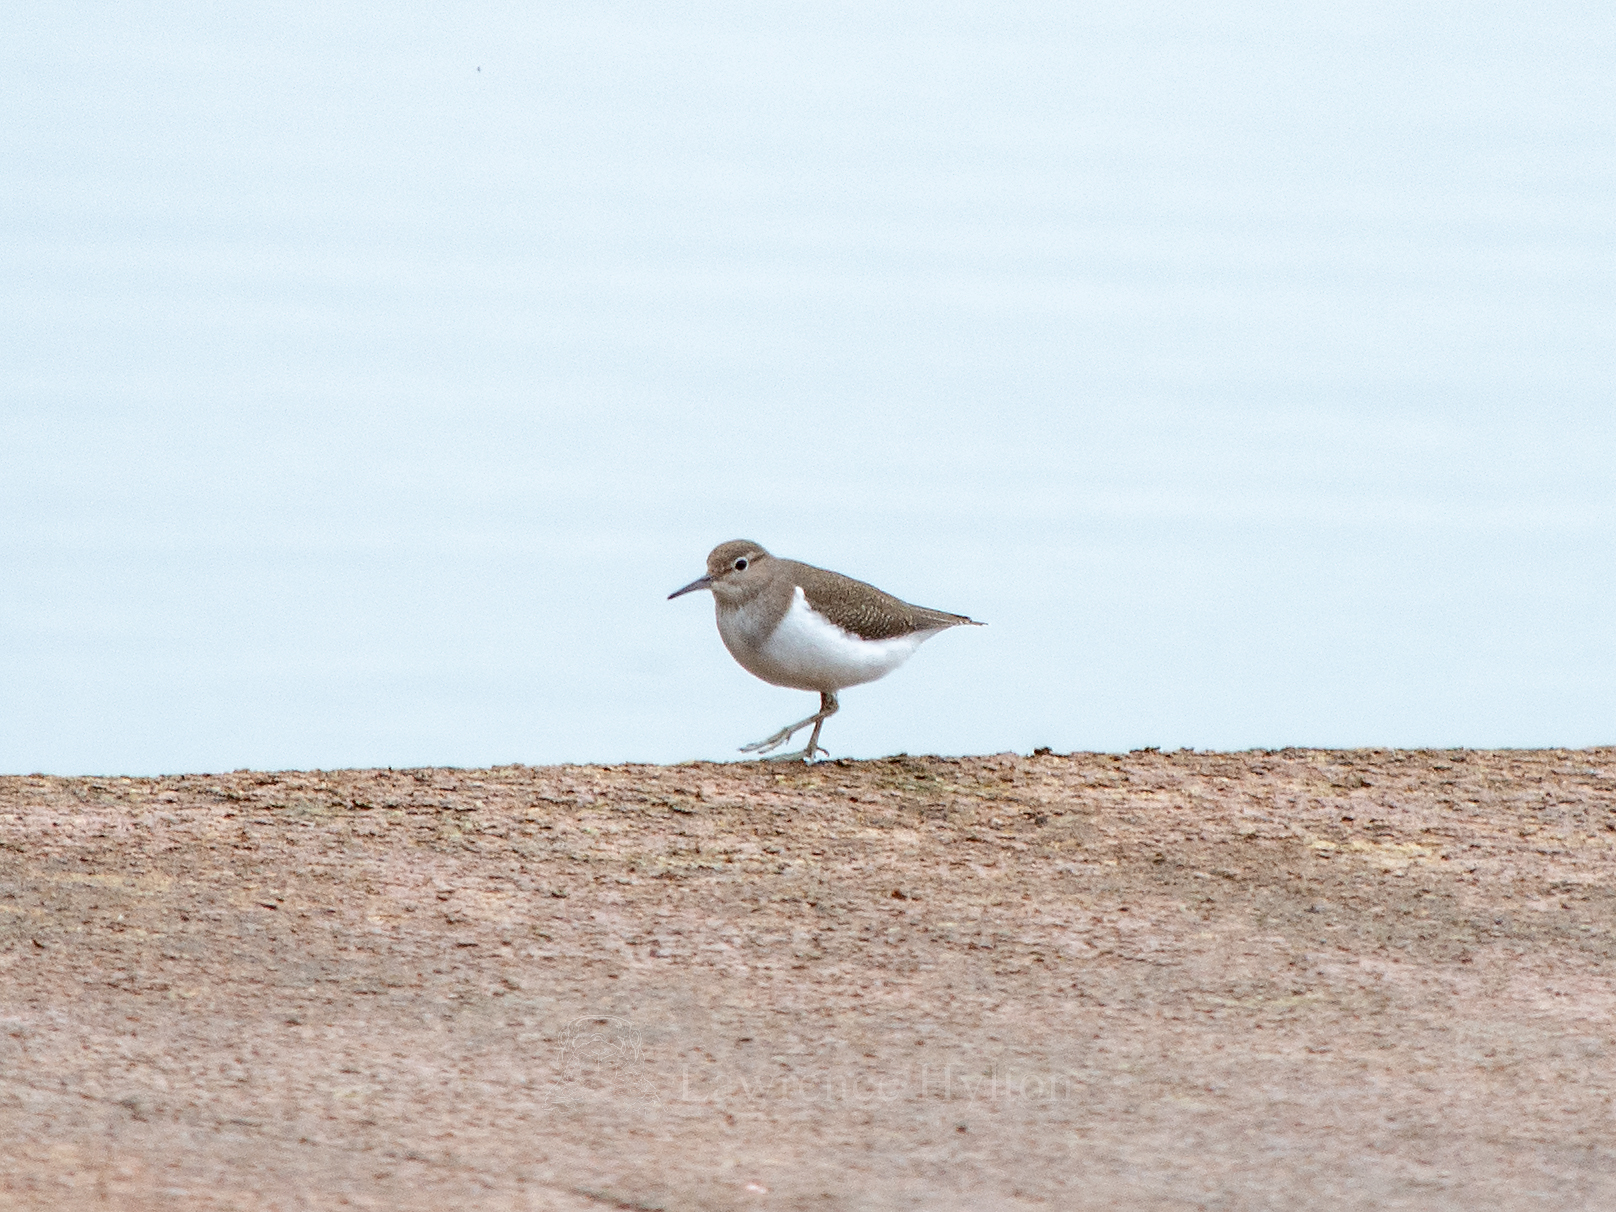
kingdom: Animalia
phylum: Chordata
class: Aves
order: Charadriiformes
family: Scolopacidae
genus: Actitis
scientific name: Actitis hypoleucos
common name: Common sandpiper
